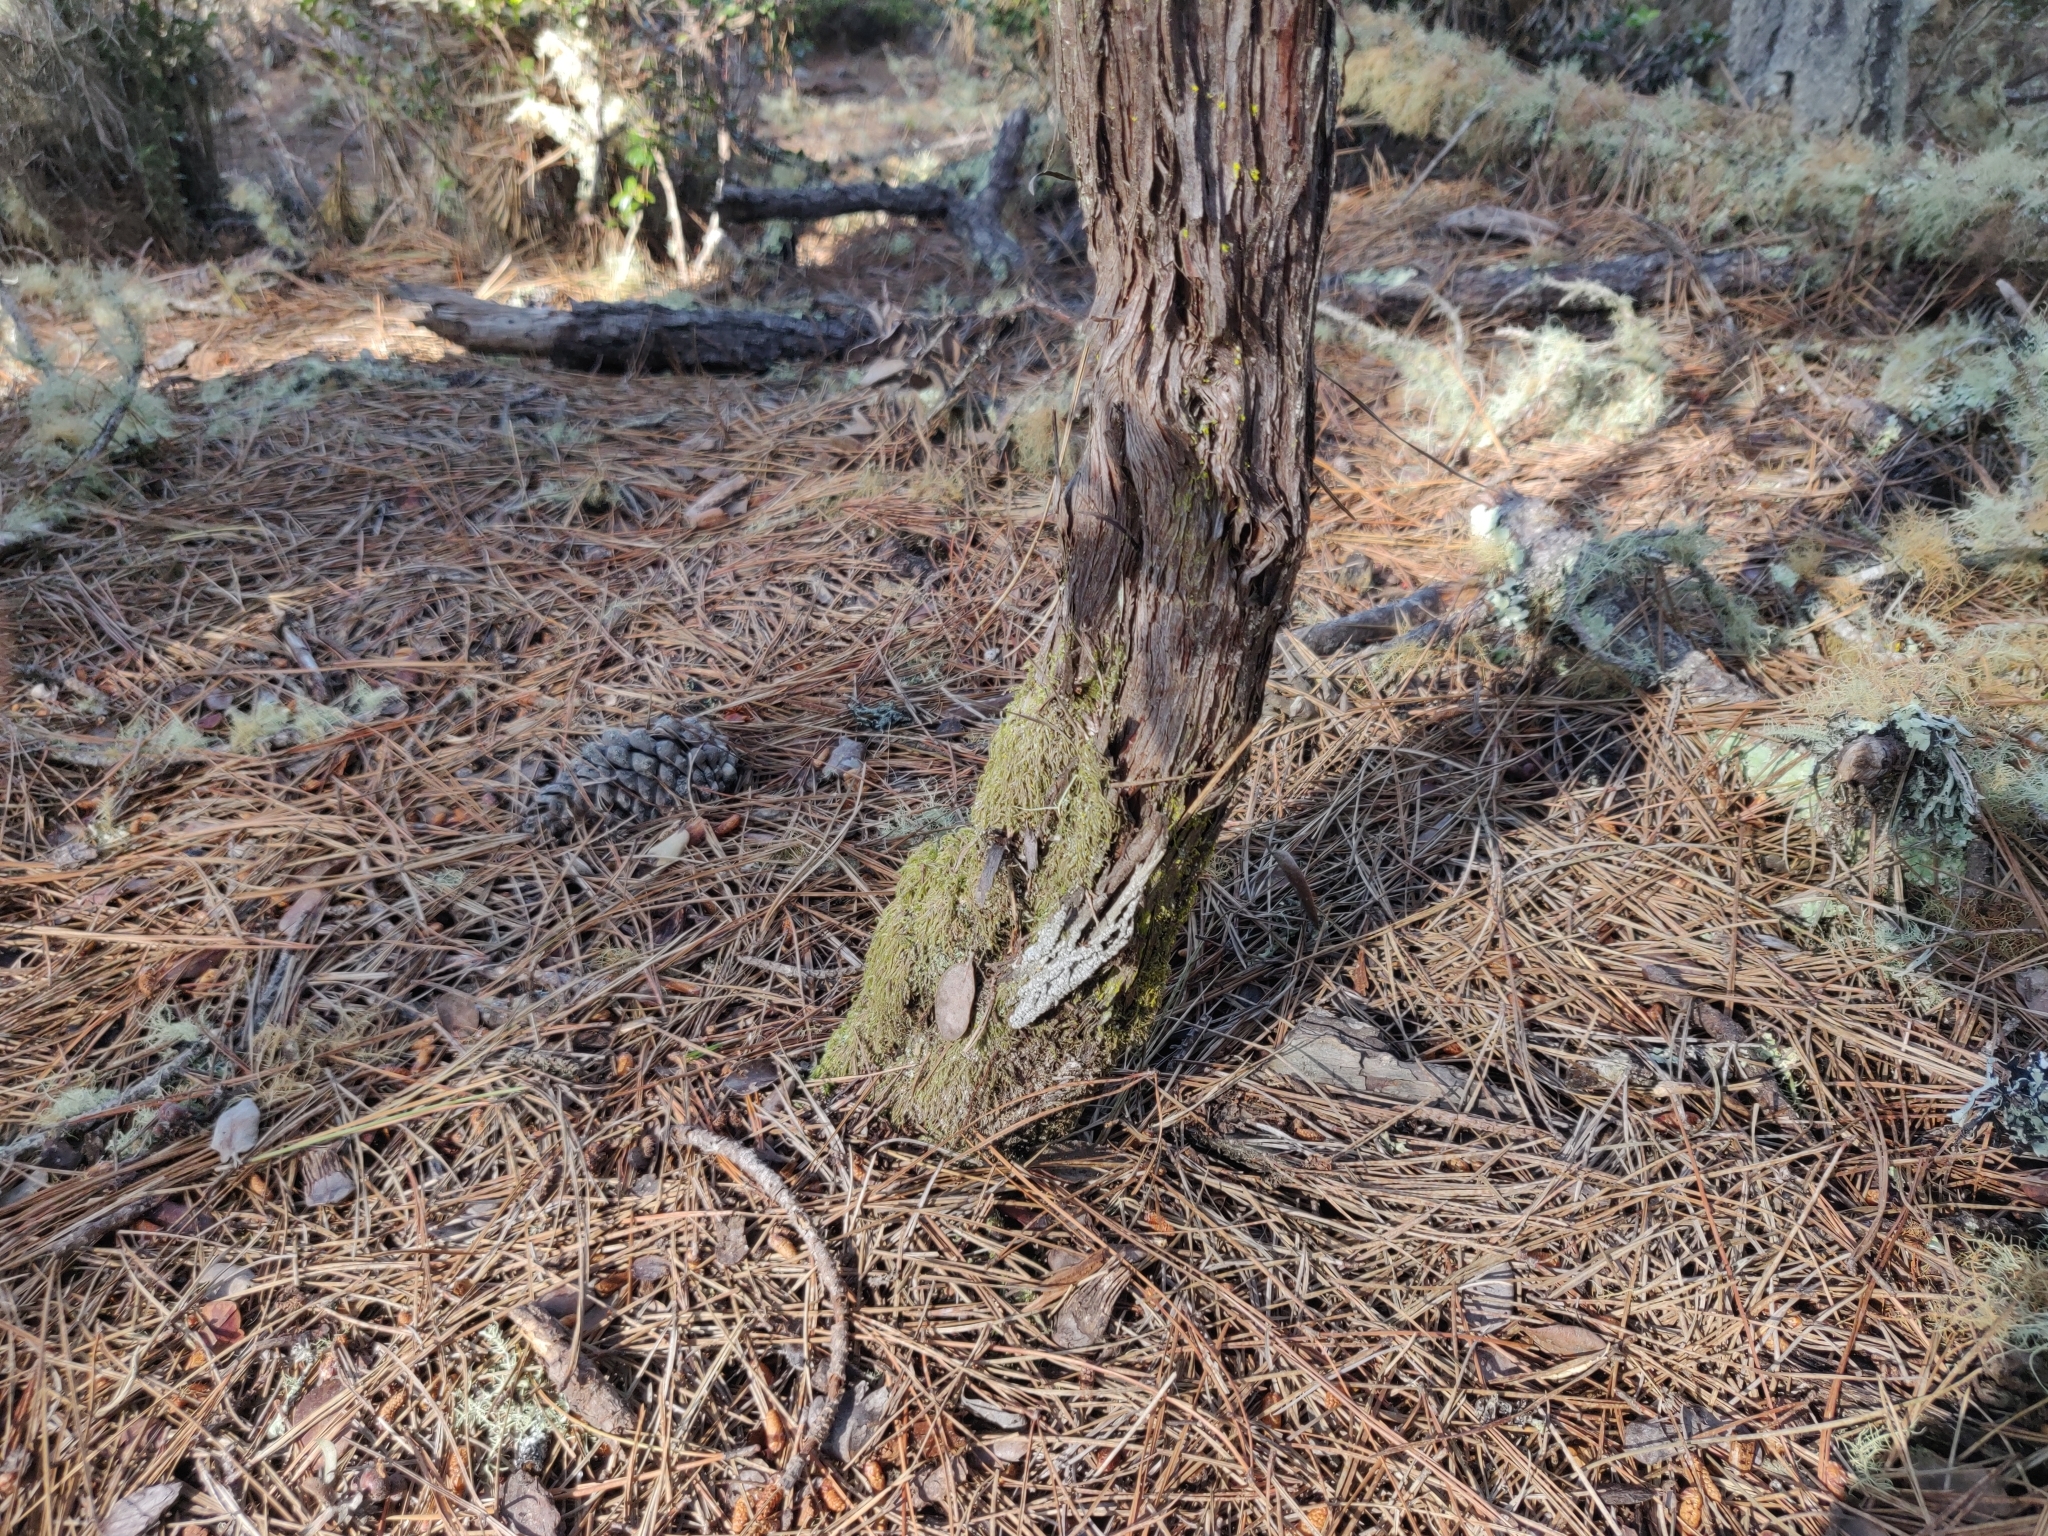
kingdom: Plantae
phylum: Tracheophyta
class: Magnoliopsida
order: Ericales
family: Ericaceae
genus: Arctostaphylos
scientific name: Arctostaphylos tomentosa
